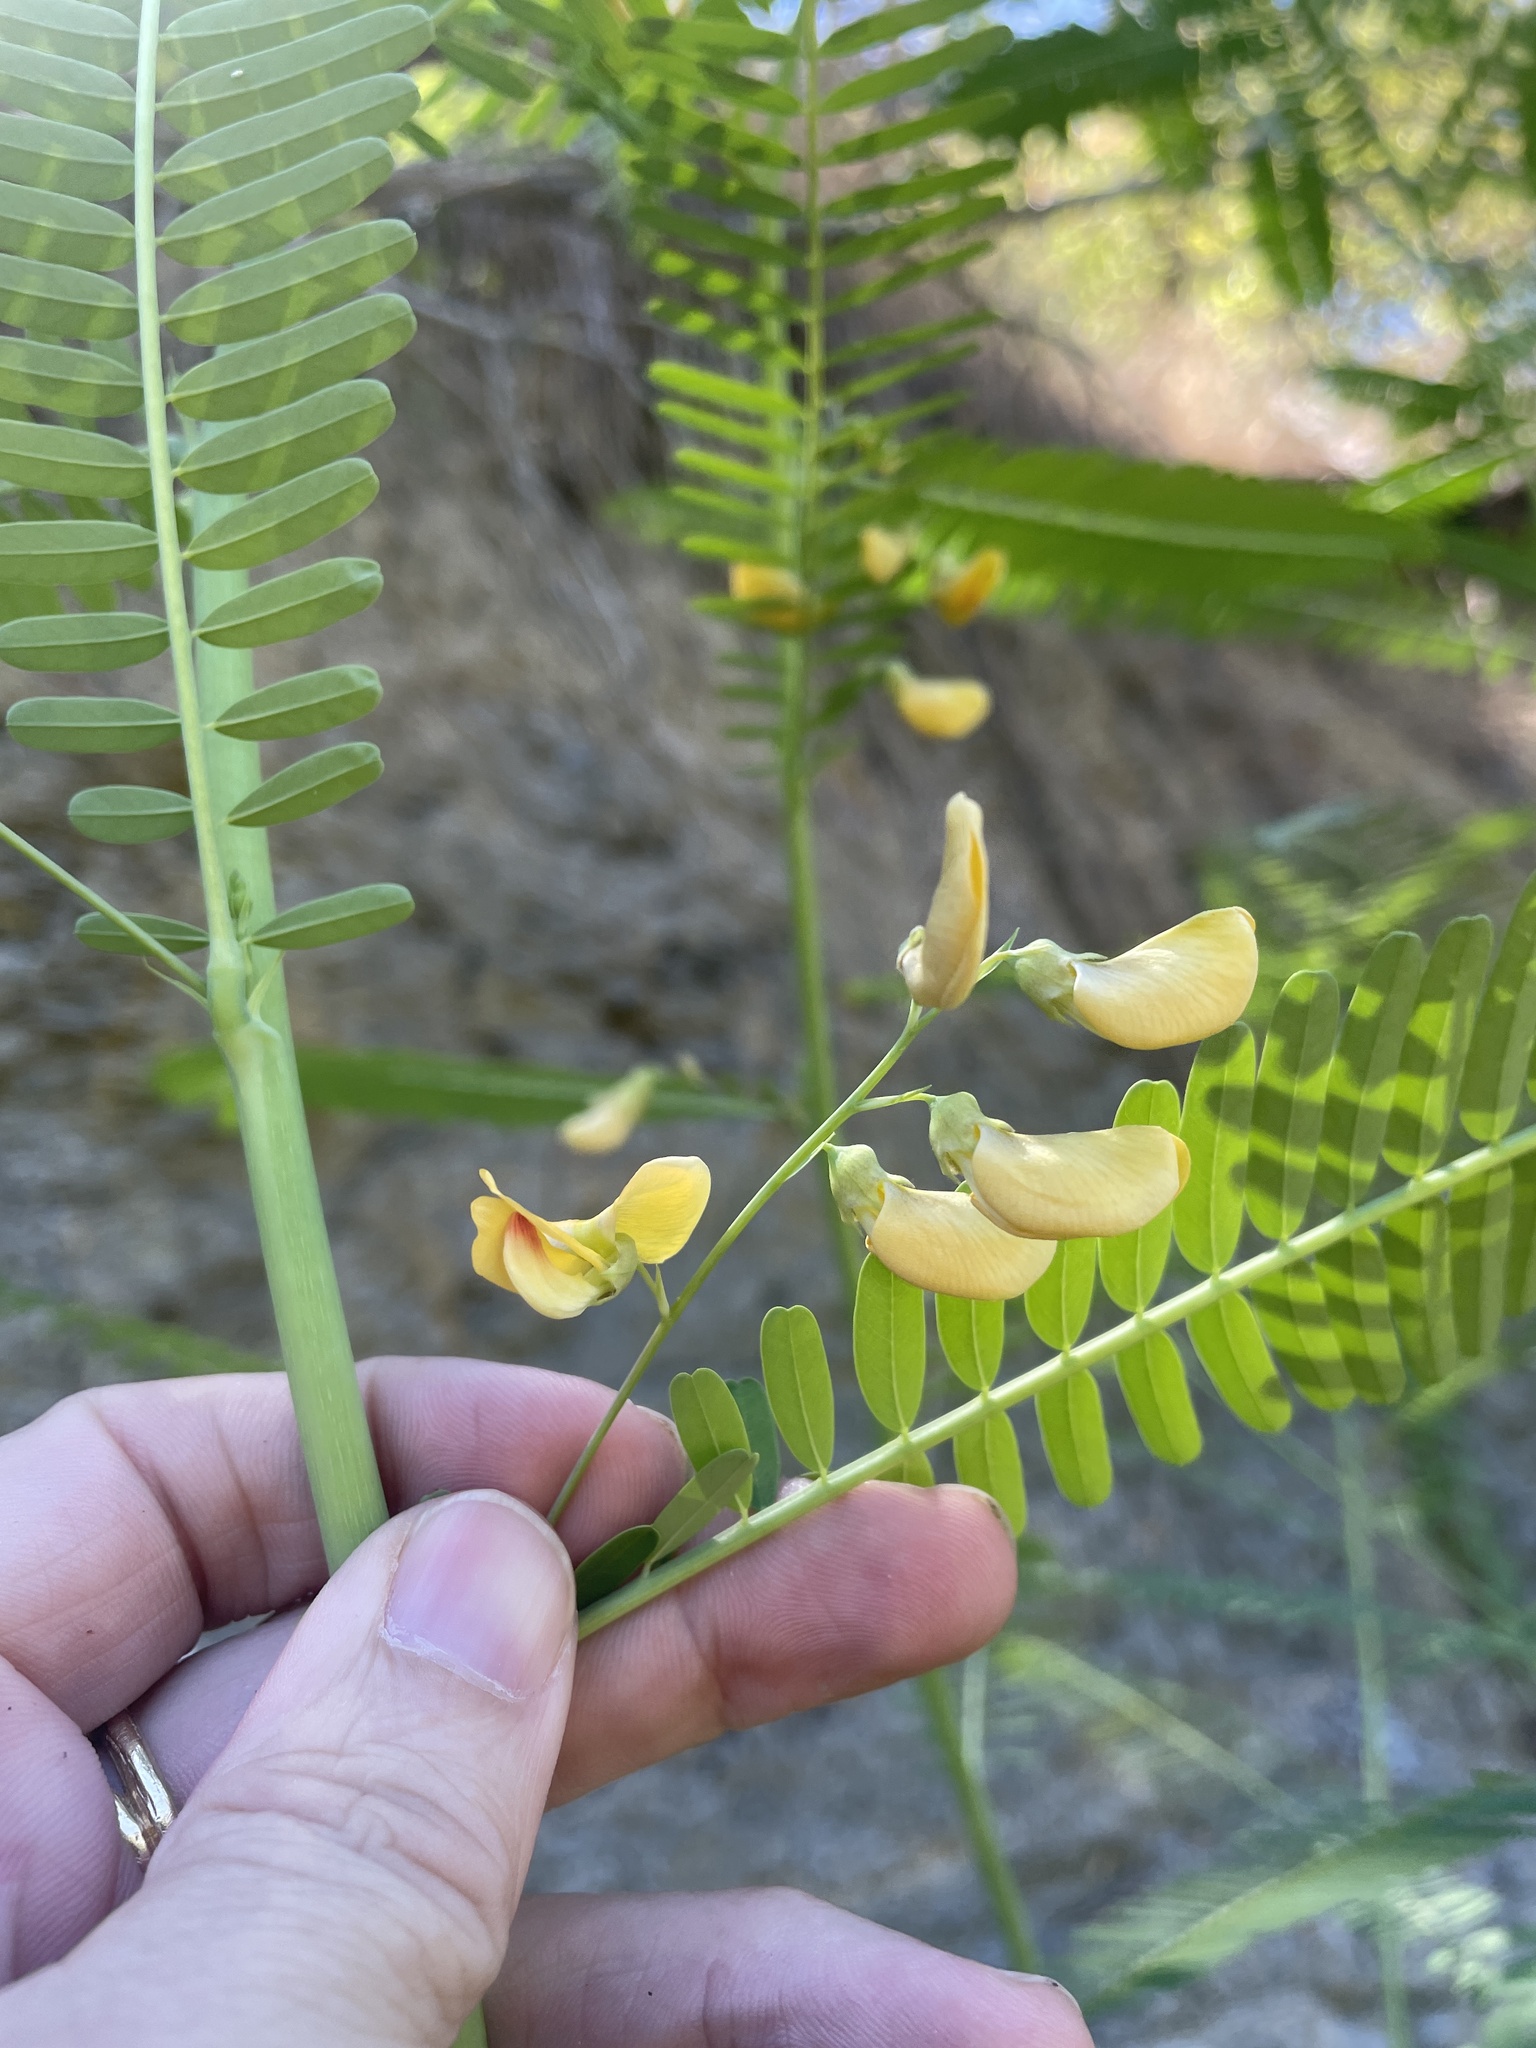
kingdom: Plantae
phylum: Tracheophyta
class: Magnoliopsida
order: Fabales
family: Fabaceae
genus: Sesbania
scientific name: Sesbania herbacea
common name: Bigpod sesbania
